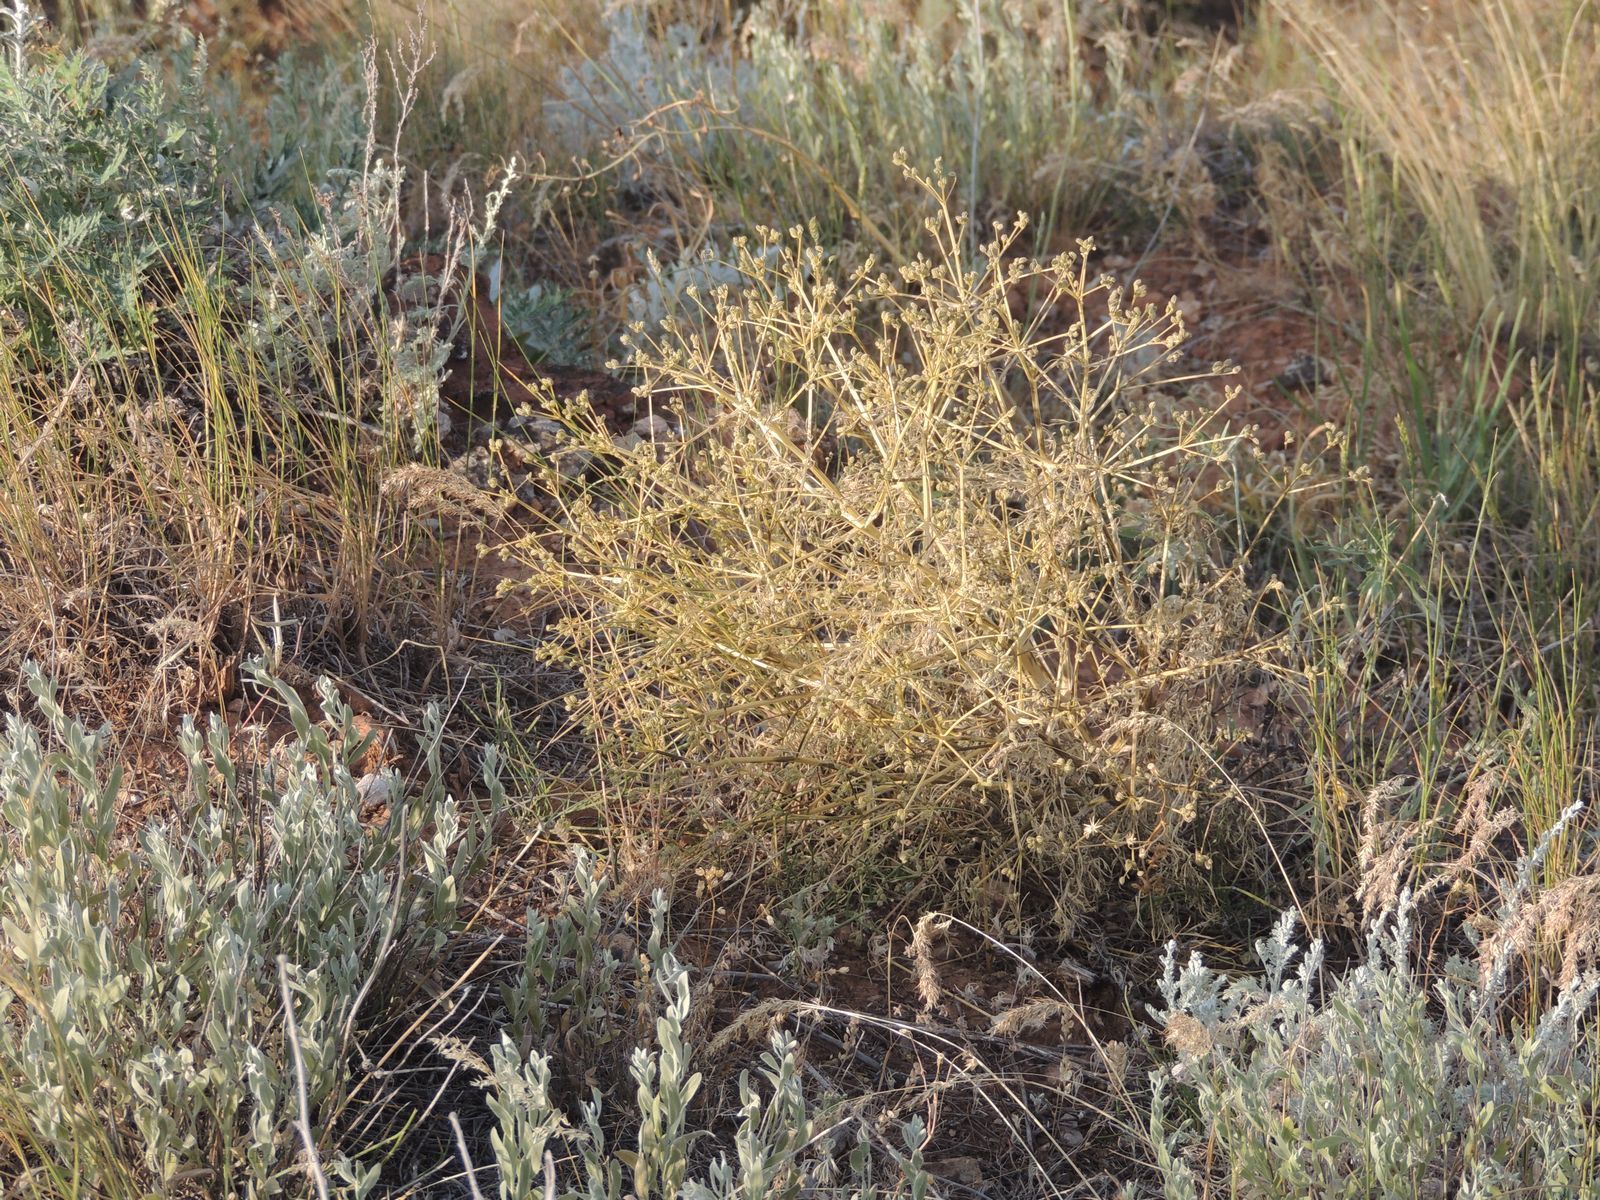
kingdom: Plantae
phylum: Tracheophyta
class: Magnoliopsida
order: Apiales
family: Apiaceae
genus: Trinia
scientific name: Trinia hispida
